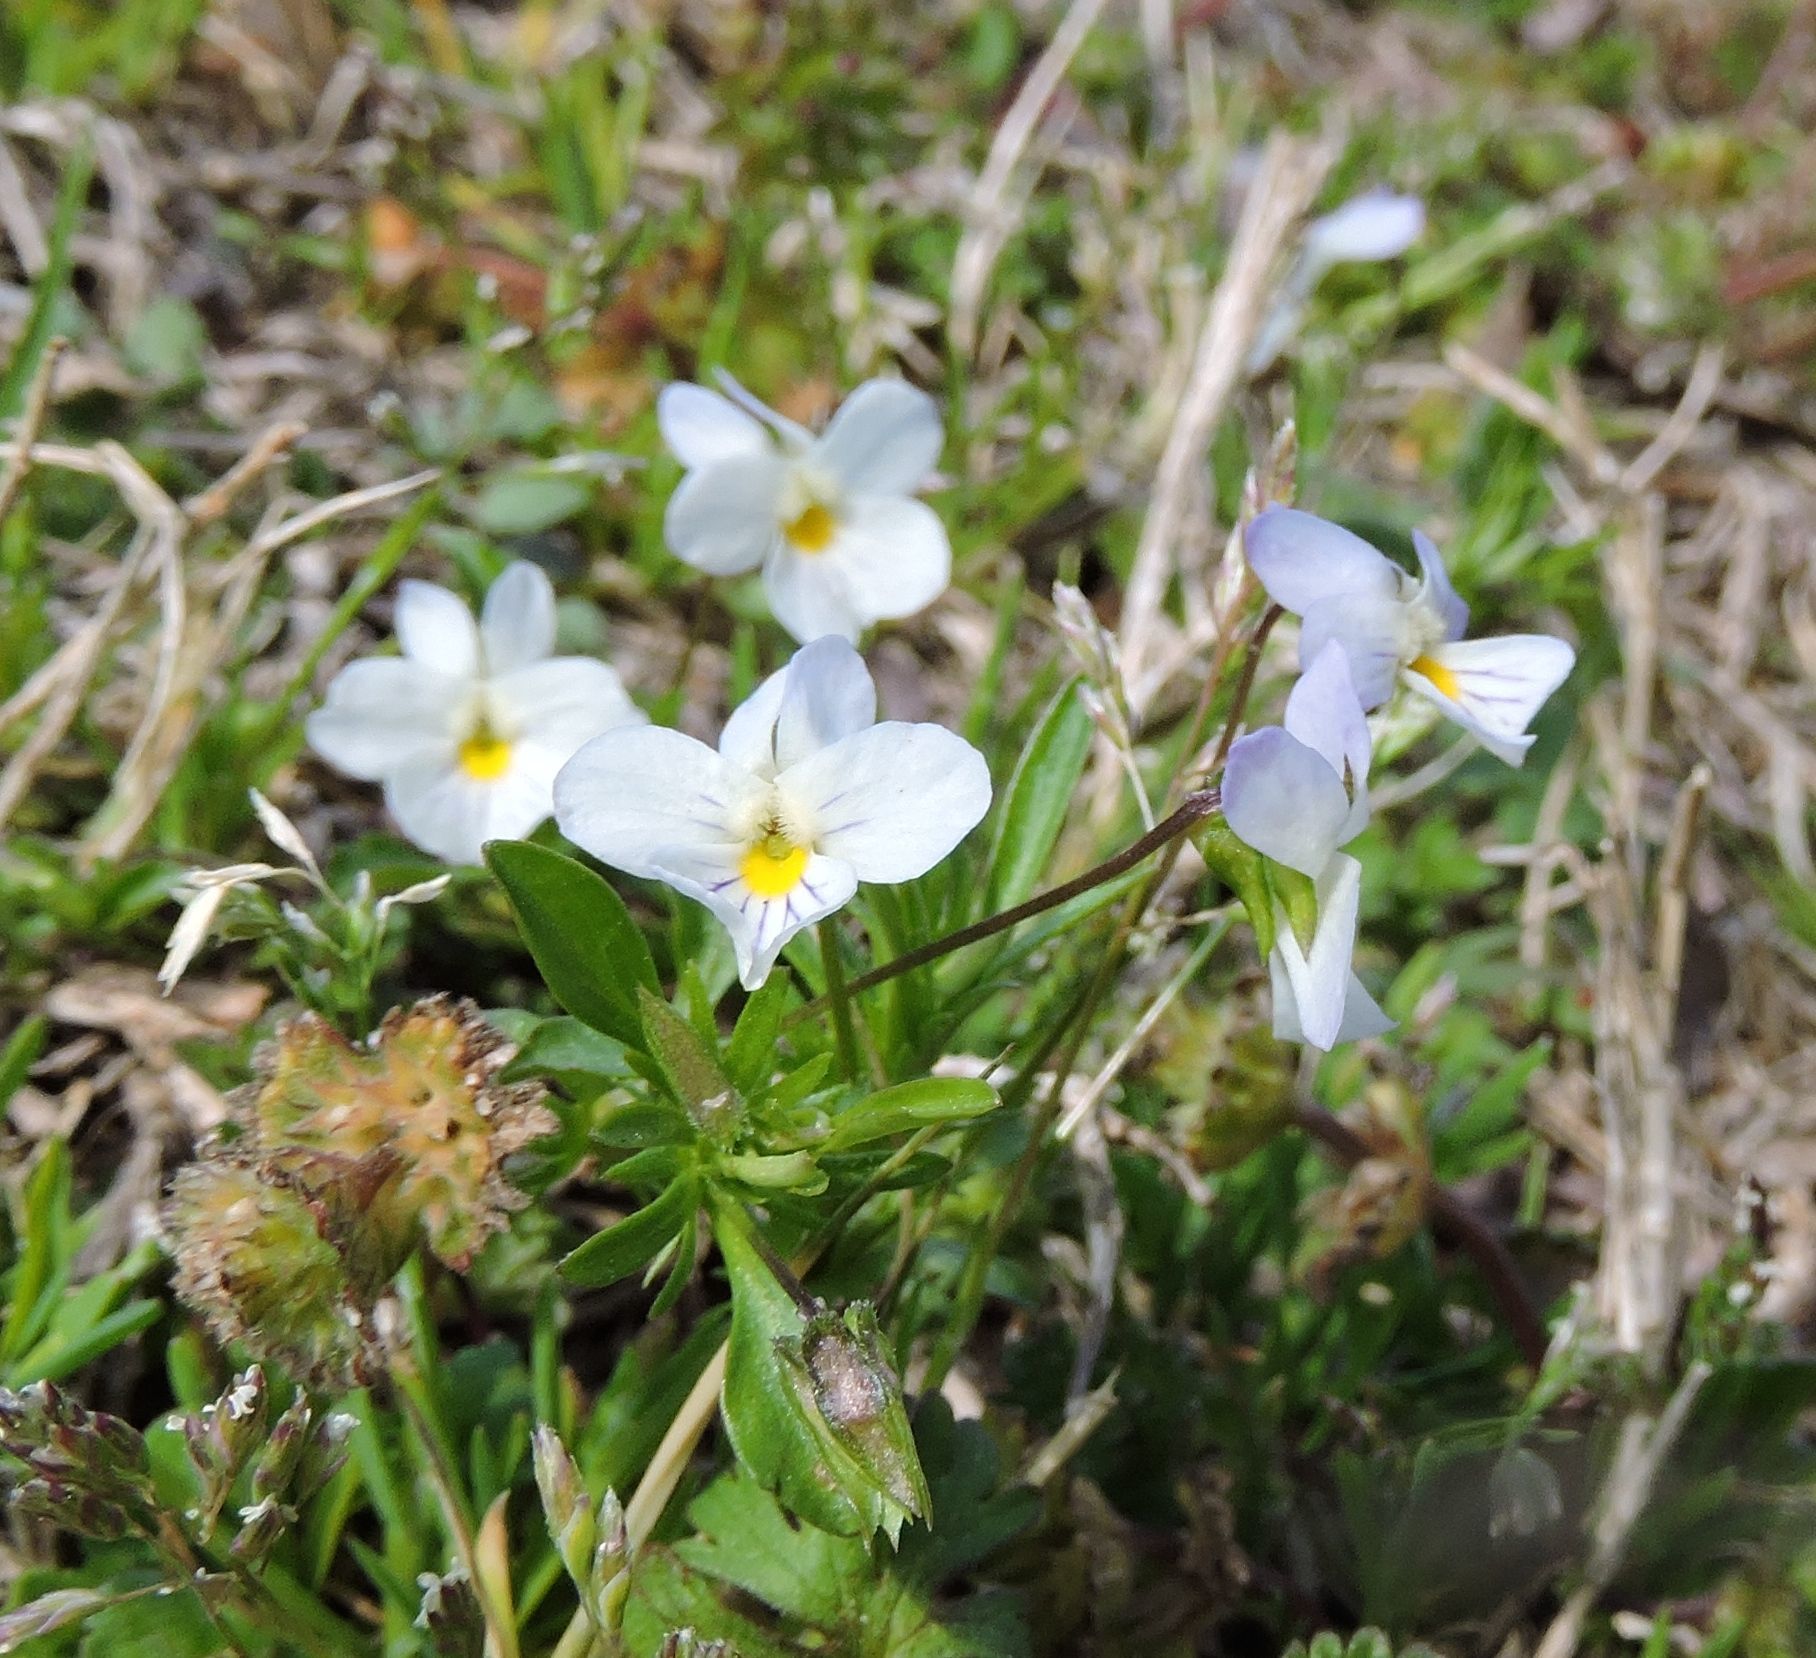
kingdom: Plantae
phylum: Tracheophyta
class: Magnoliopsida
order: Malpighiales
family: Violaceae
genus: Viola
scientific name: Viola rafinesquei
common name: American field pansy
